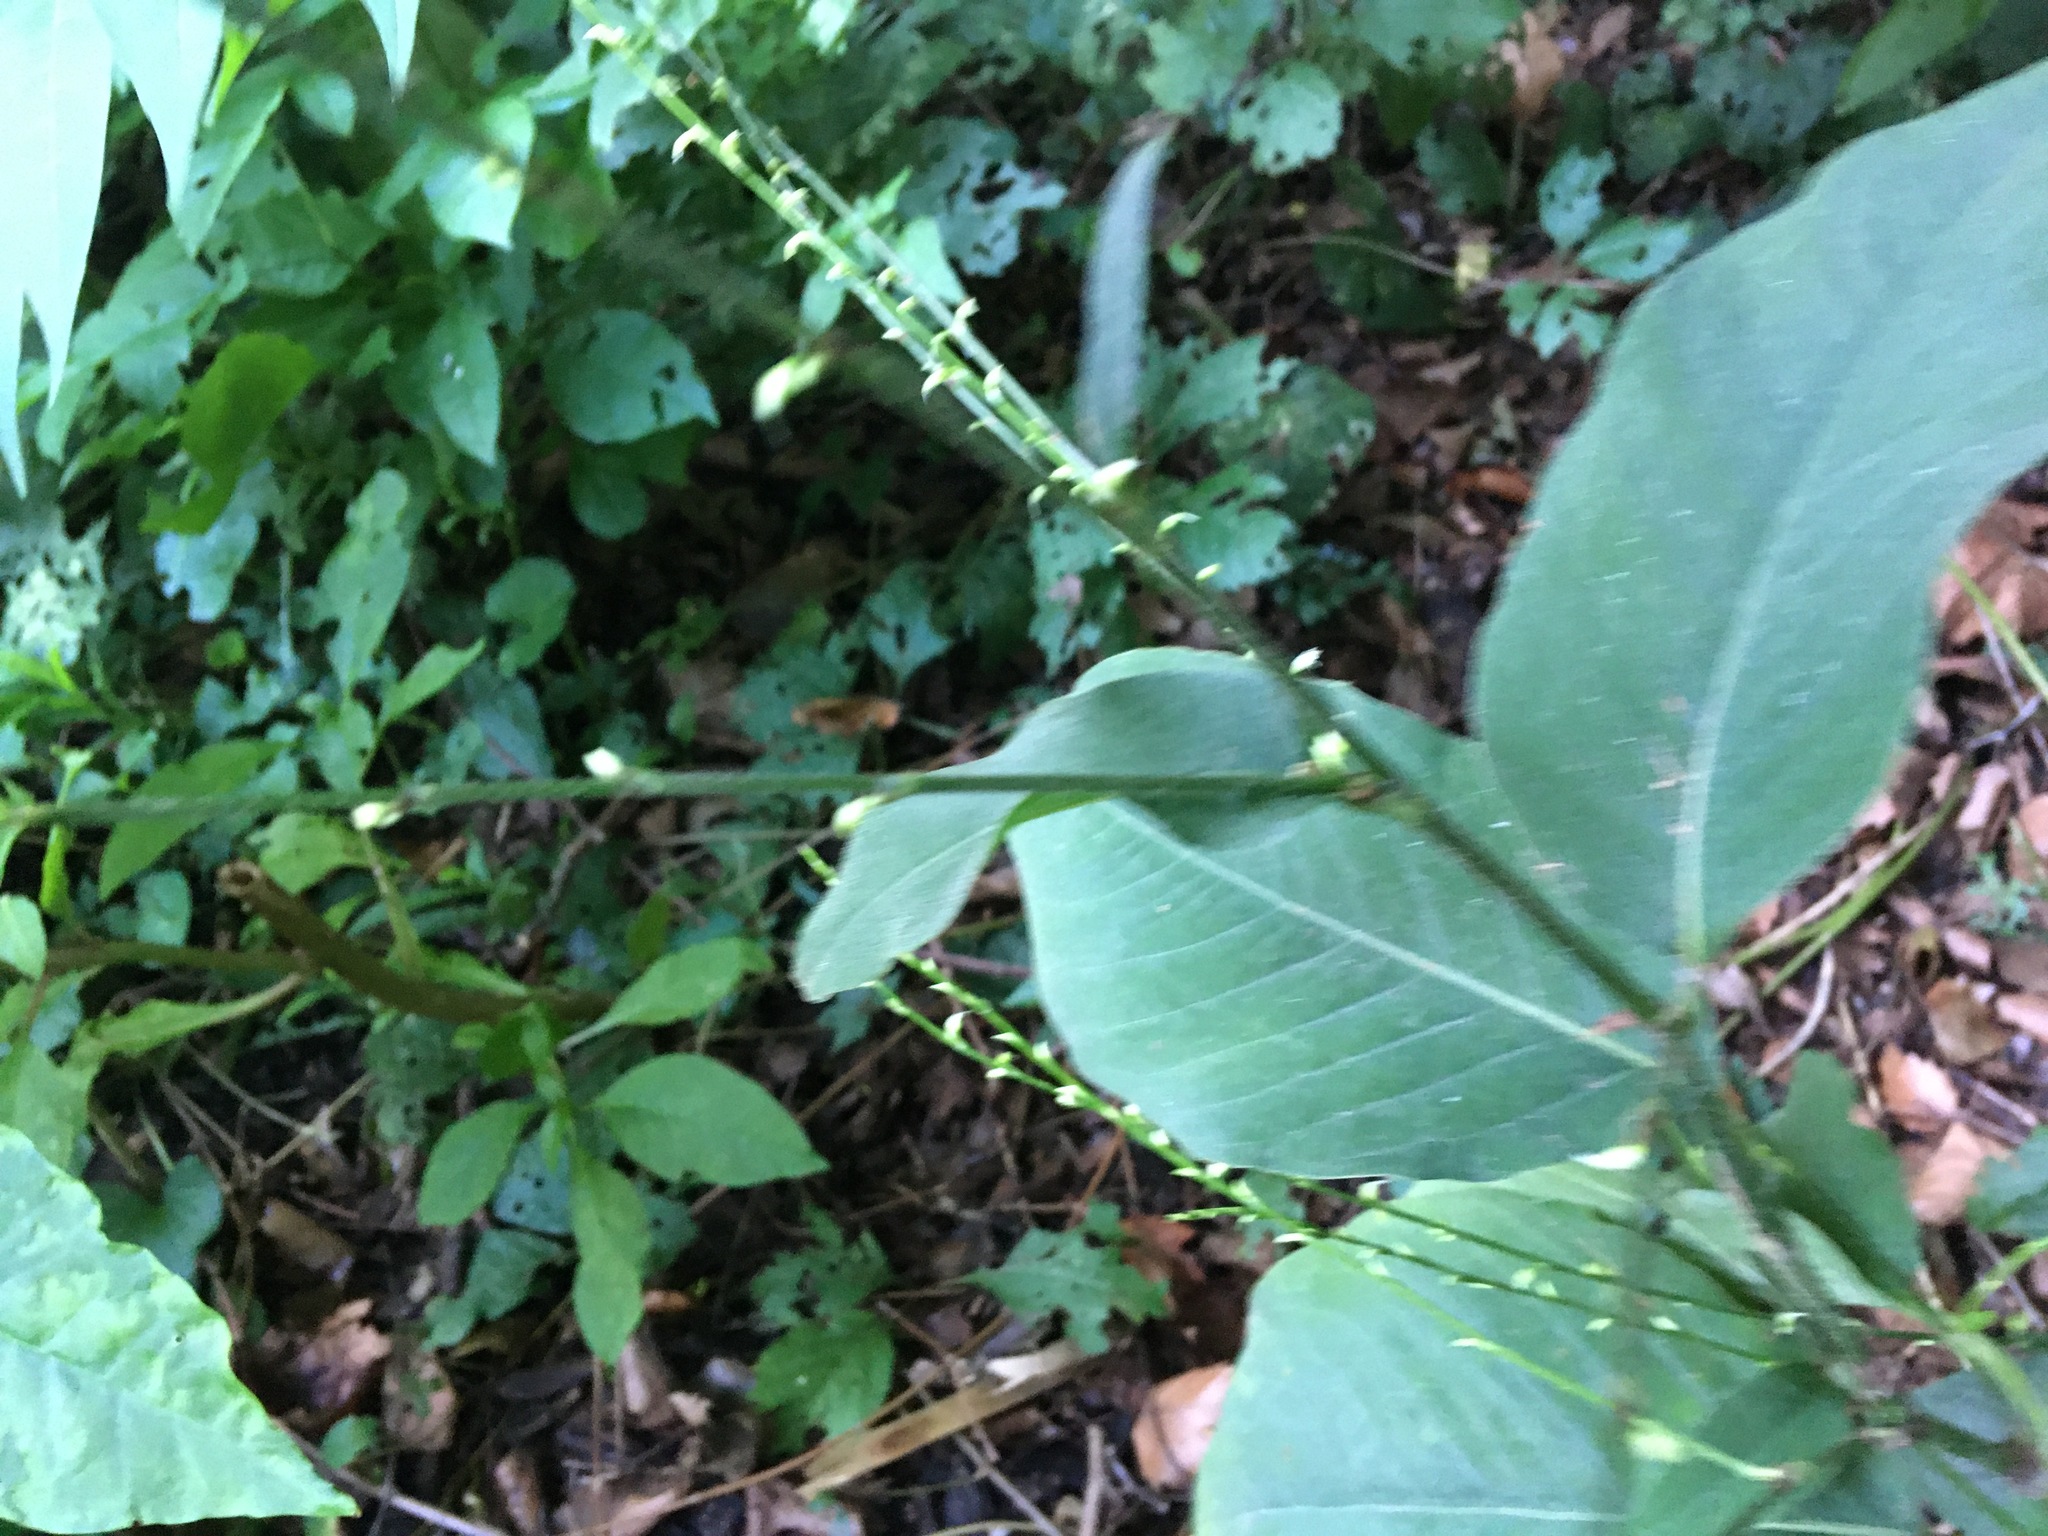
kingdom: Plantae
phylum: Tracheophyta
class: Magnoliopsida
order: Caryophyllales
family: Polygonaceae
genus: Persicaria
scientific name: Persicaria virginiana
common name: Jumpseed
